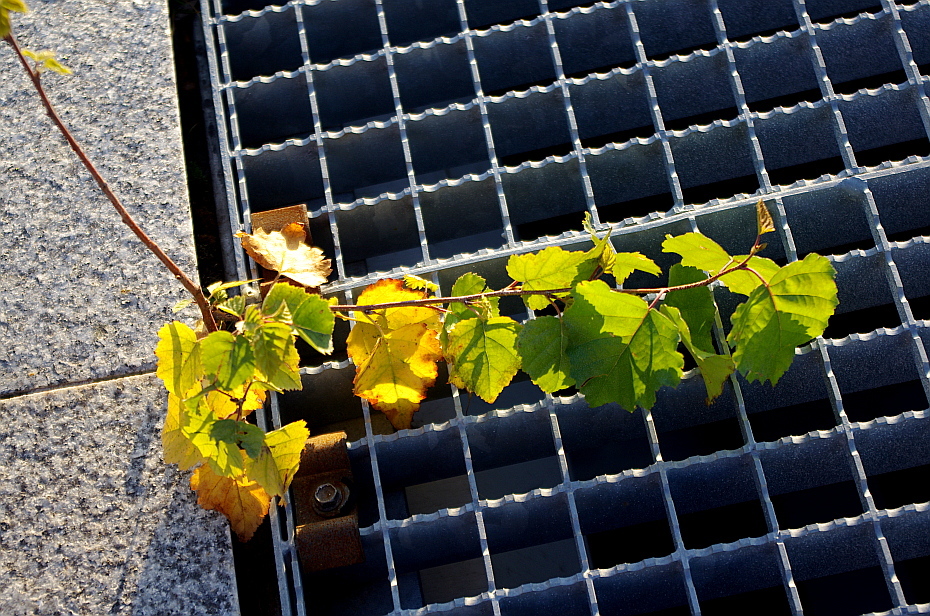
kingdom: Plantae
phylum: Tracheophyta
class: Magnoliopsida
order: Fagales
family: Betulaceae
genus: Betula
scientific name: Betula pendula
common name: Silver birch
